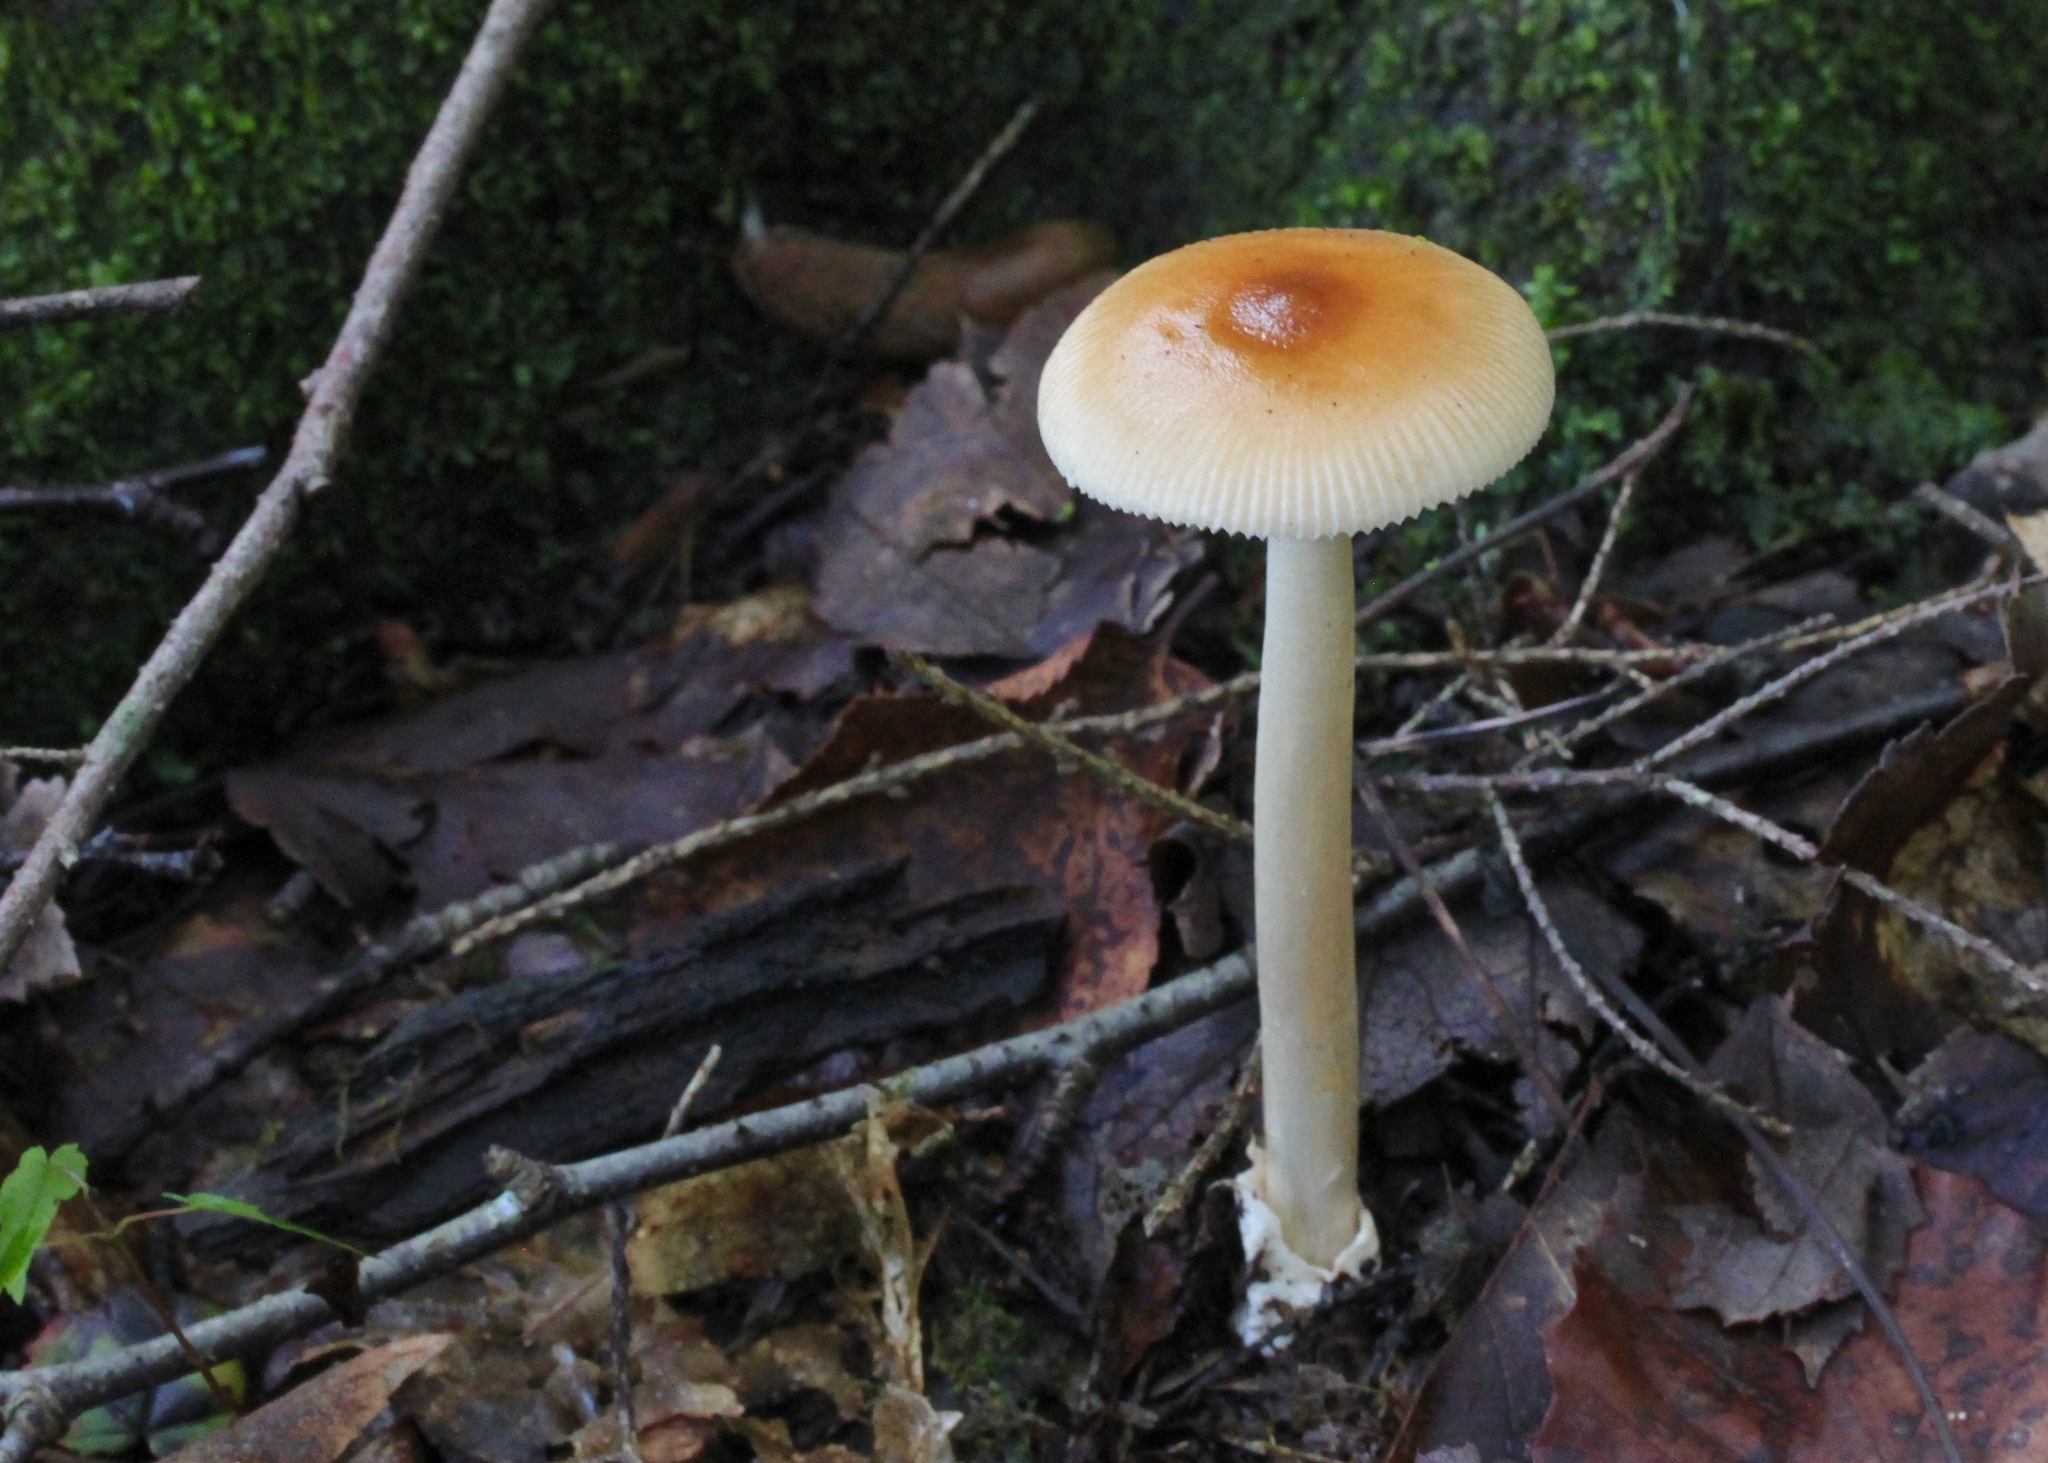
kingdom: Fungi
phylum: Basidiomycota
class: Agaricomycetes
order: Agaricales
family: Amanitaceae
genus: Amanita
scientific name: Amanita fulva
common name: Tawny grisette
